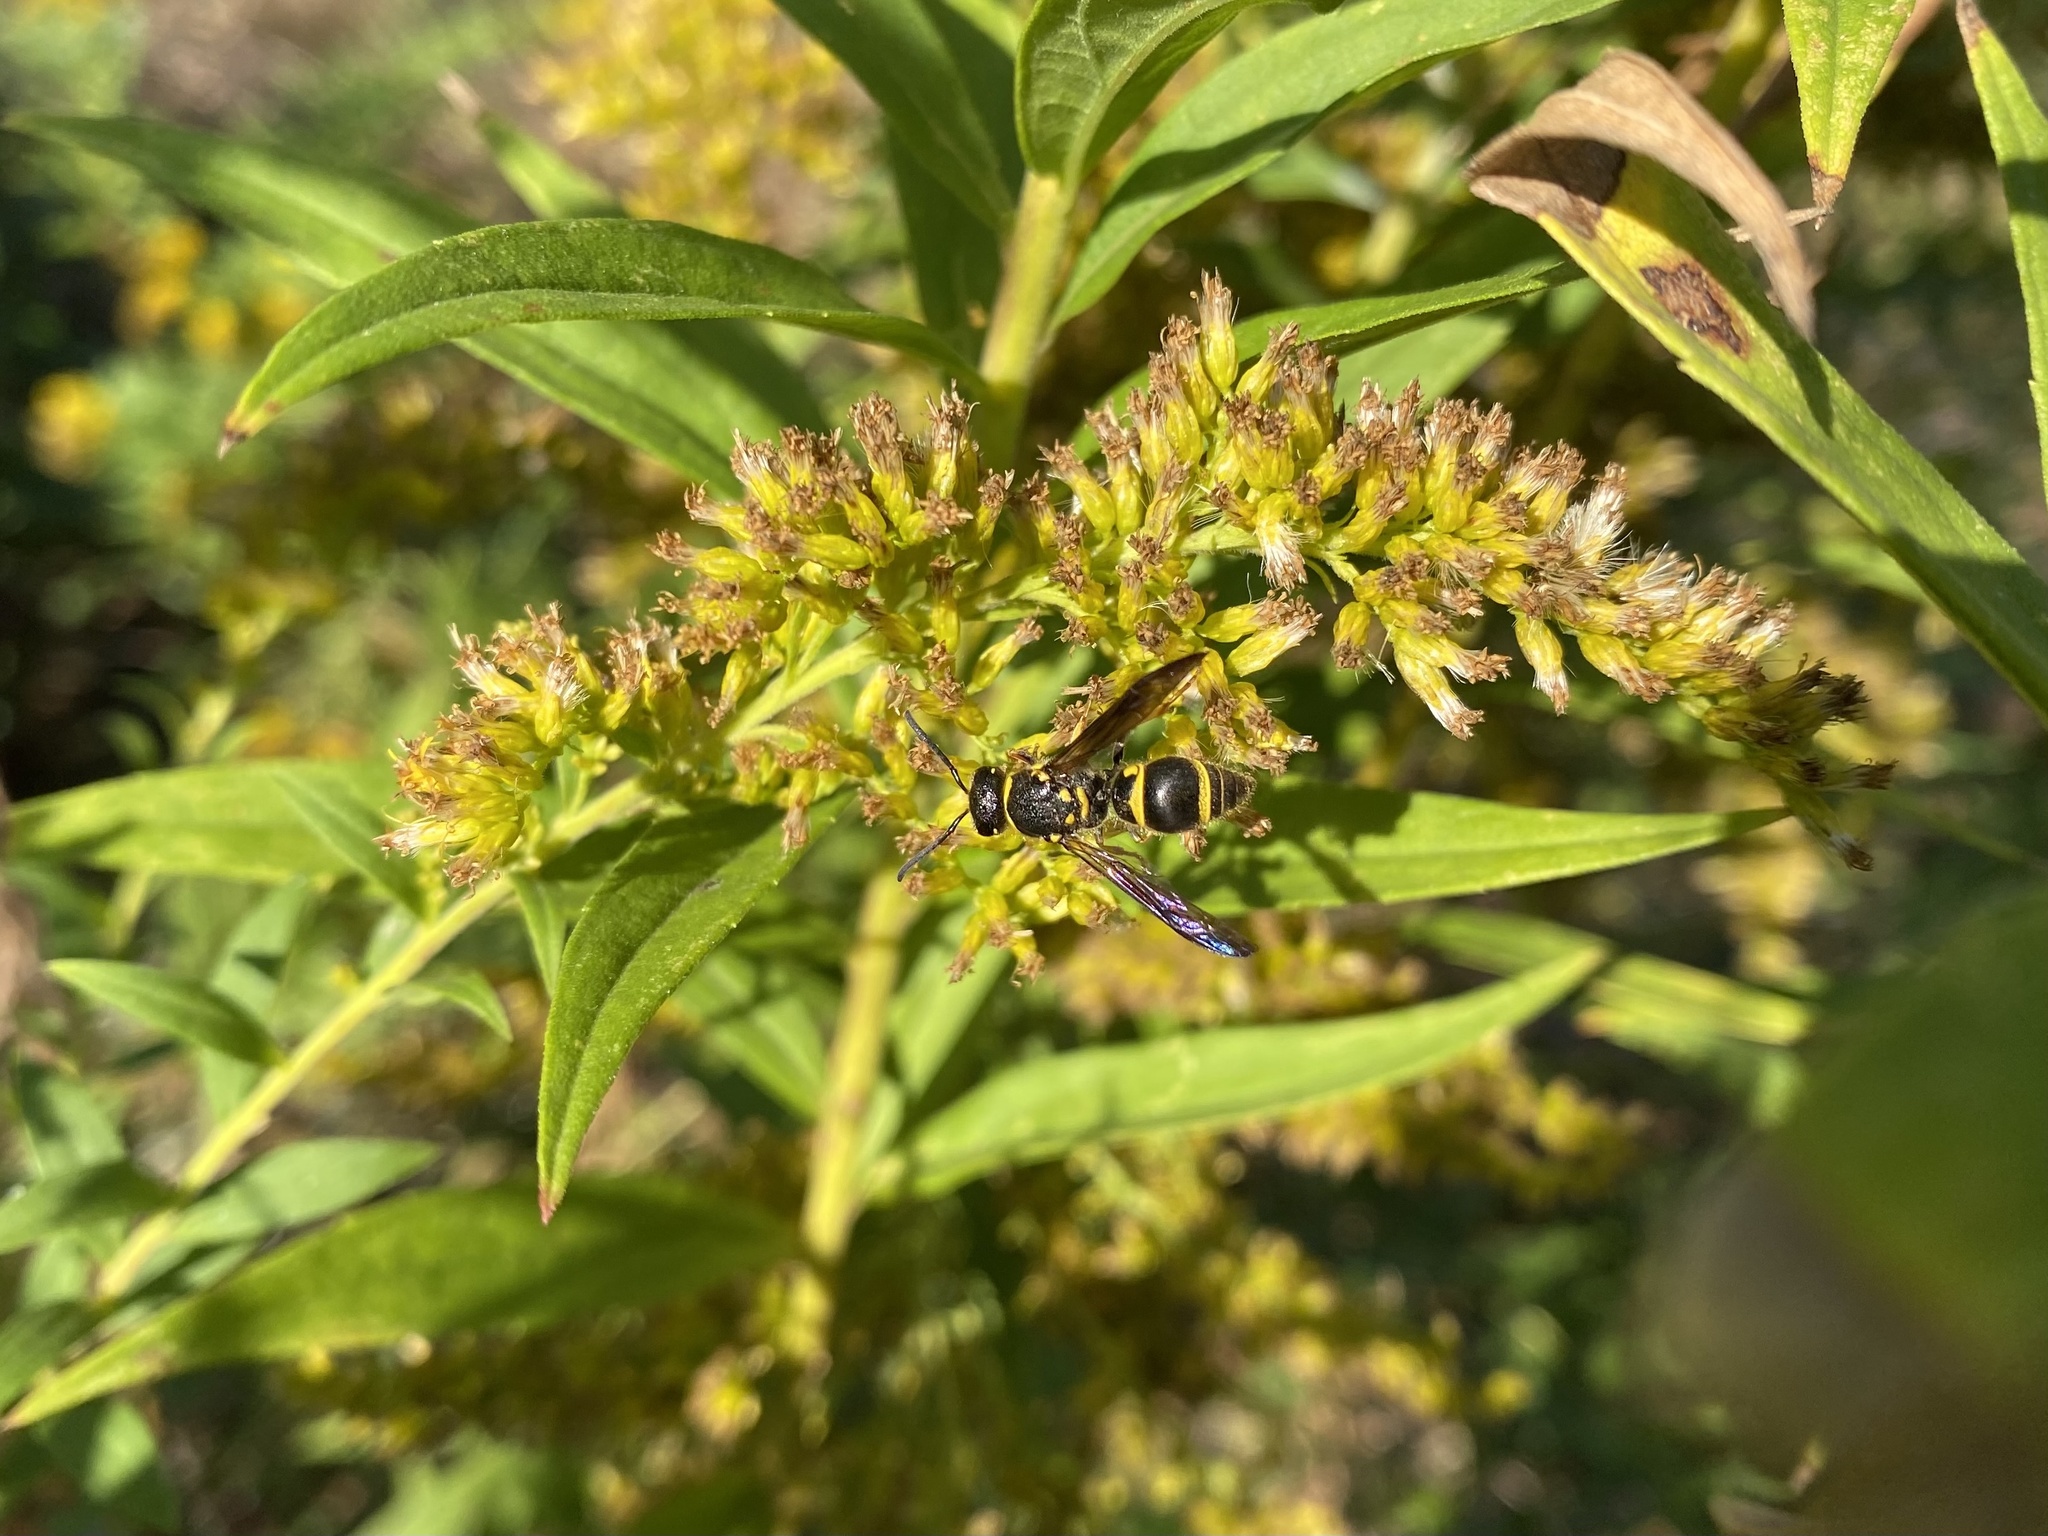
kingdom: Animalia
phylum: Arthropoda
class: Insecta
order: Hymenoptera
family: Vespidae
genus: Ancistrocerus
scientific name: Ancistrocerus campestris
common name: Smiling mason wasp
